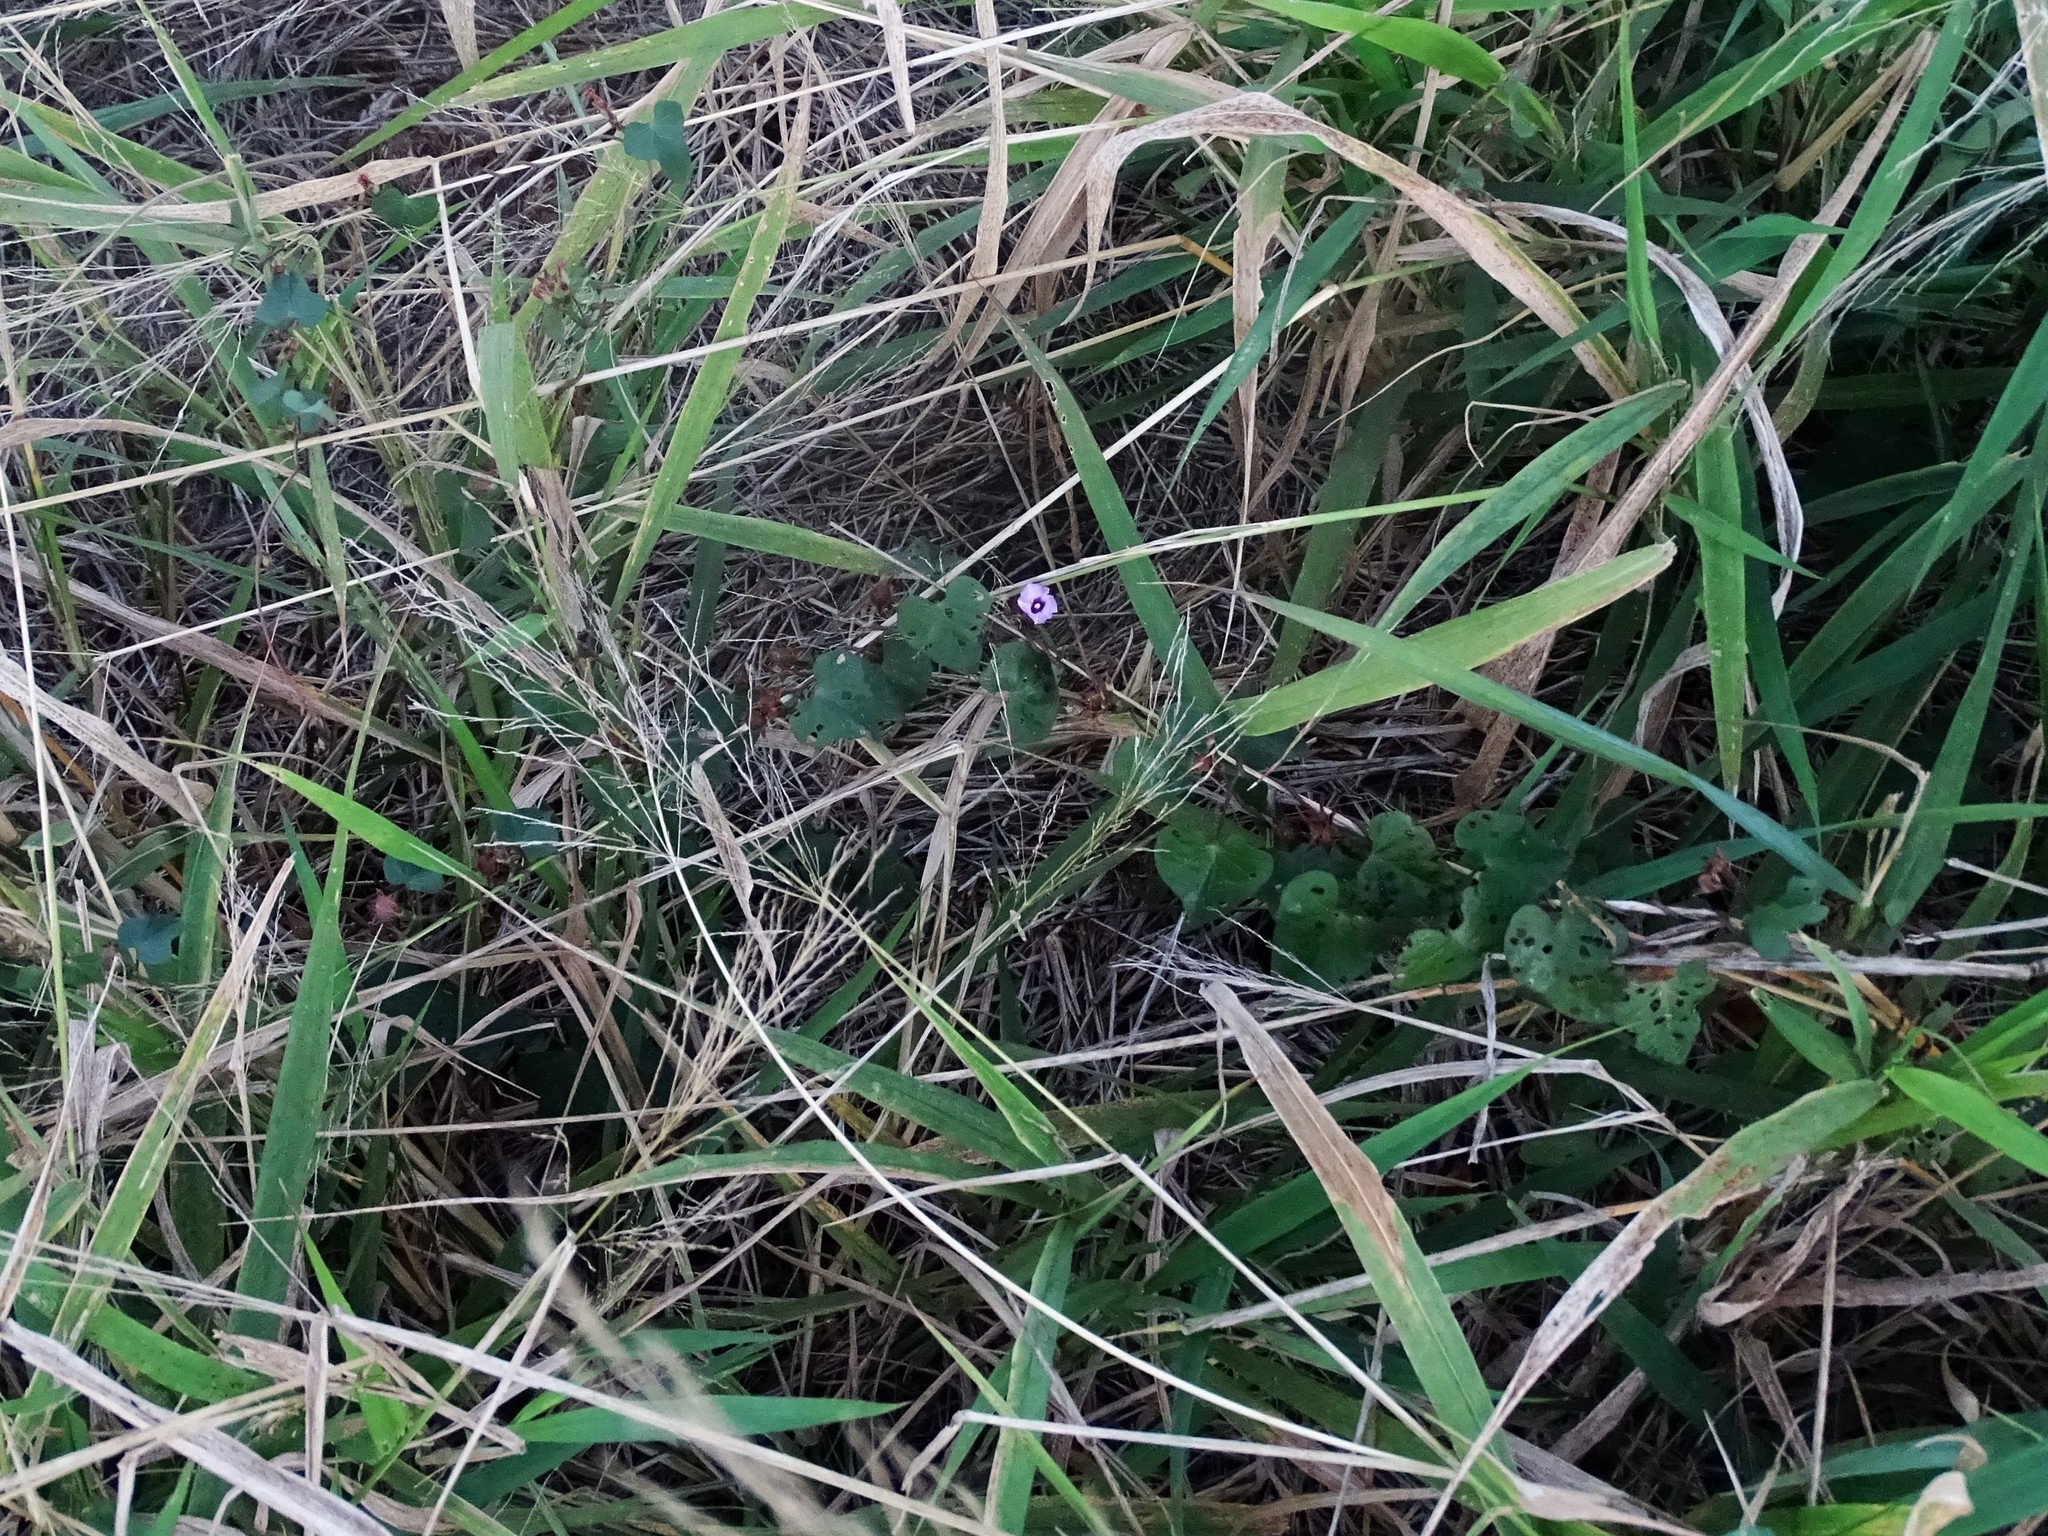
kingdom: Plantae
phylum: Tracheophyta
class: Magnoliopsida
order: Solanales
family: Convolvulaceae
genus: Ipomoea
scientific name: Ipomoea triloba
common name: Little-bell
